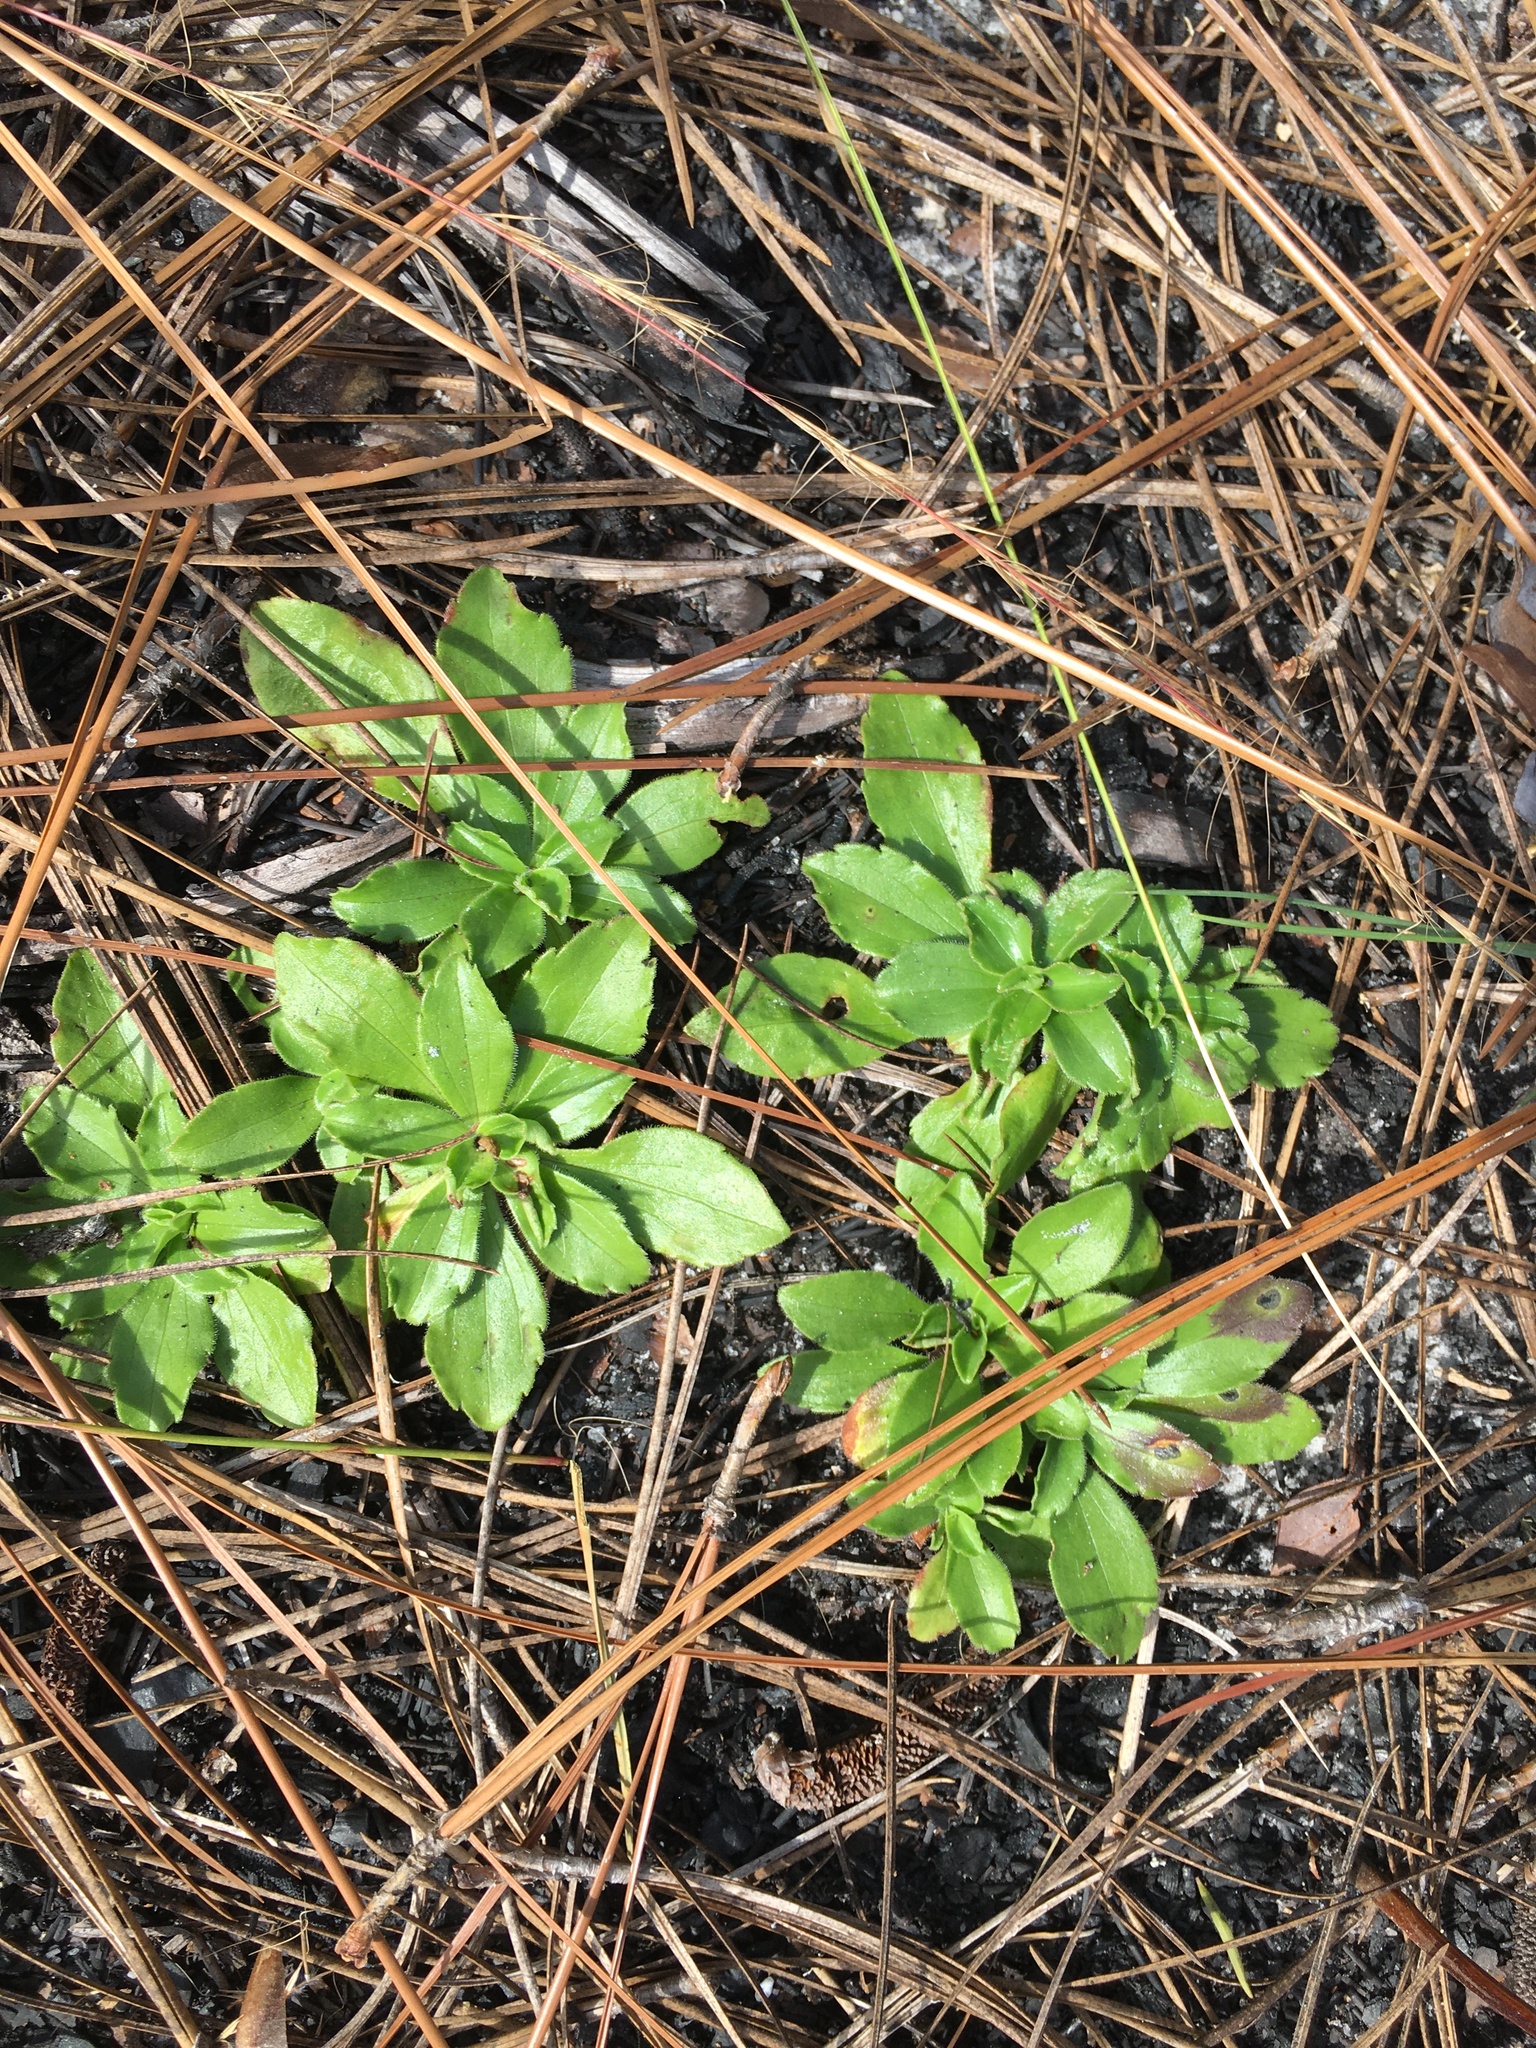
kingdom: Plantae
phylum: Tracheophyta
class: Magnoliopsida
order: Asterales
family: Asteraceae
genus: Sericocarpus
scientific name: Sericocarpus asteroides
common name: Toothed white-top aster
